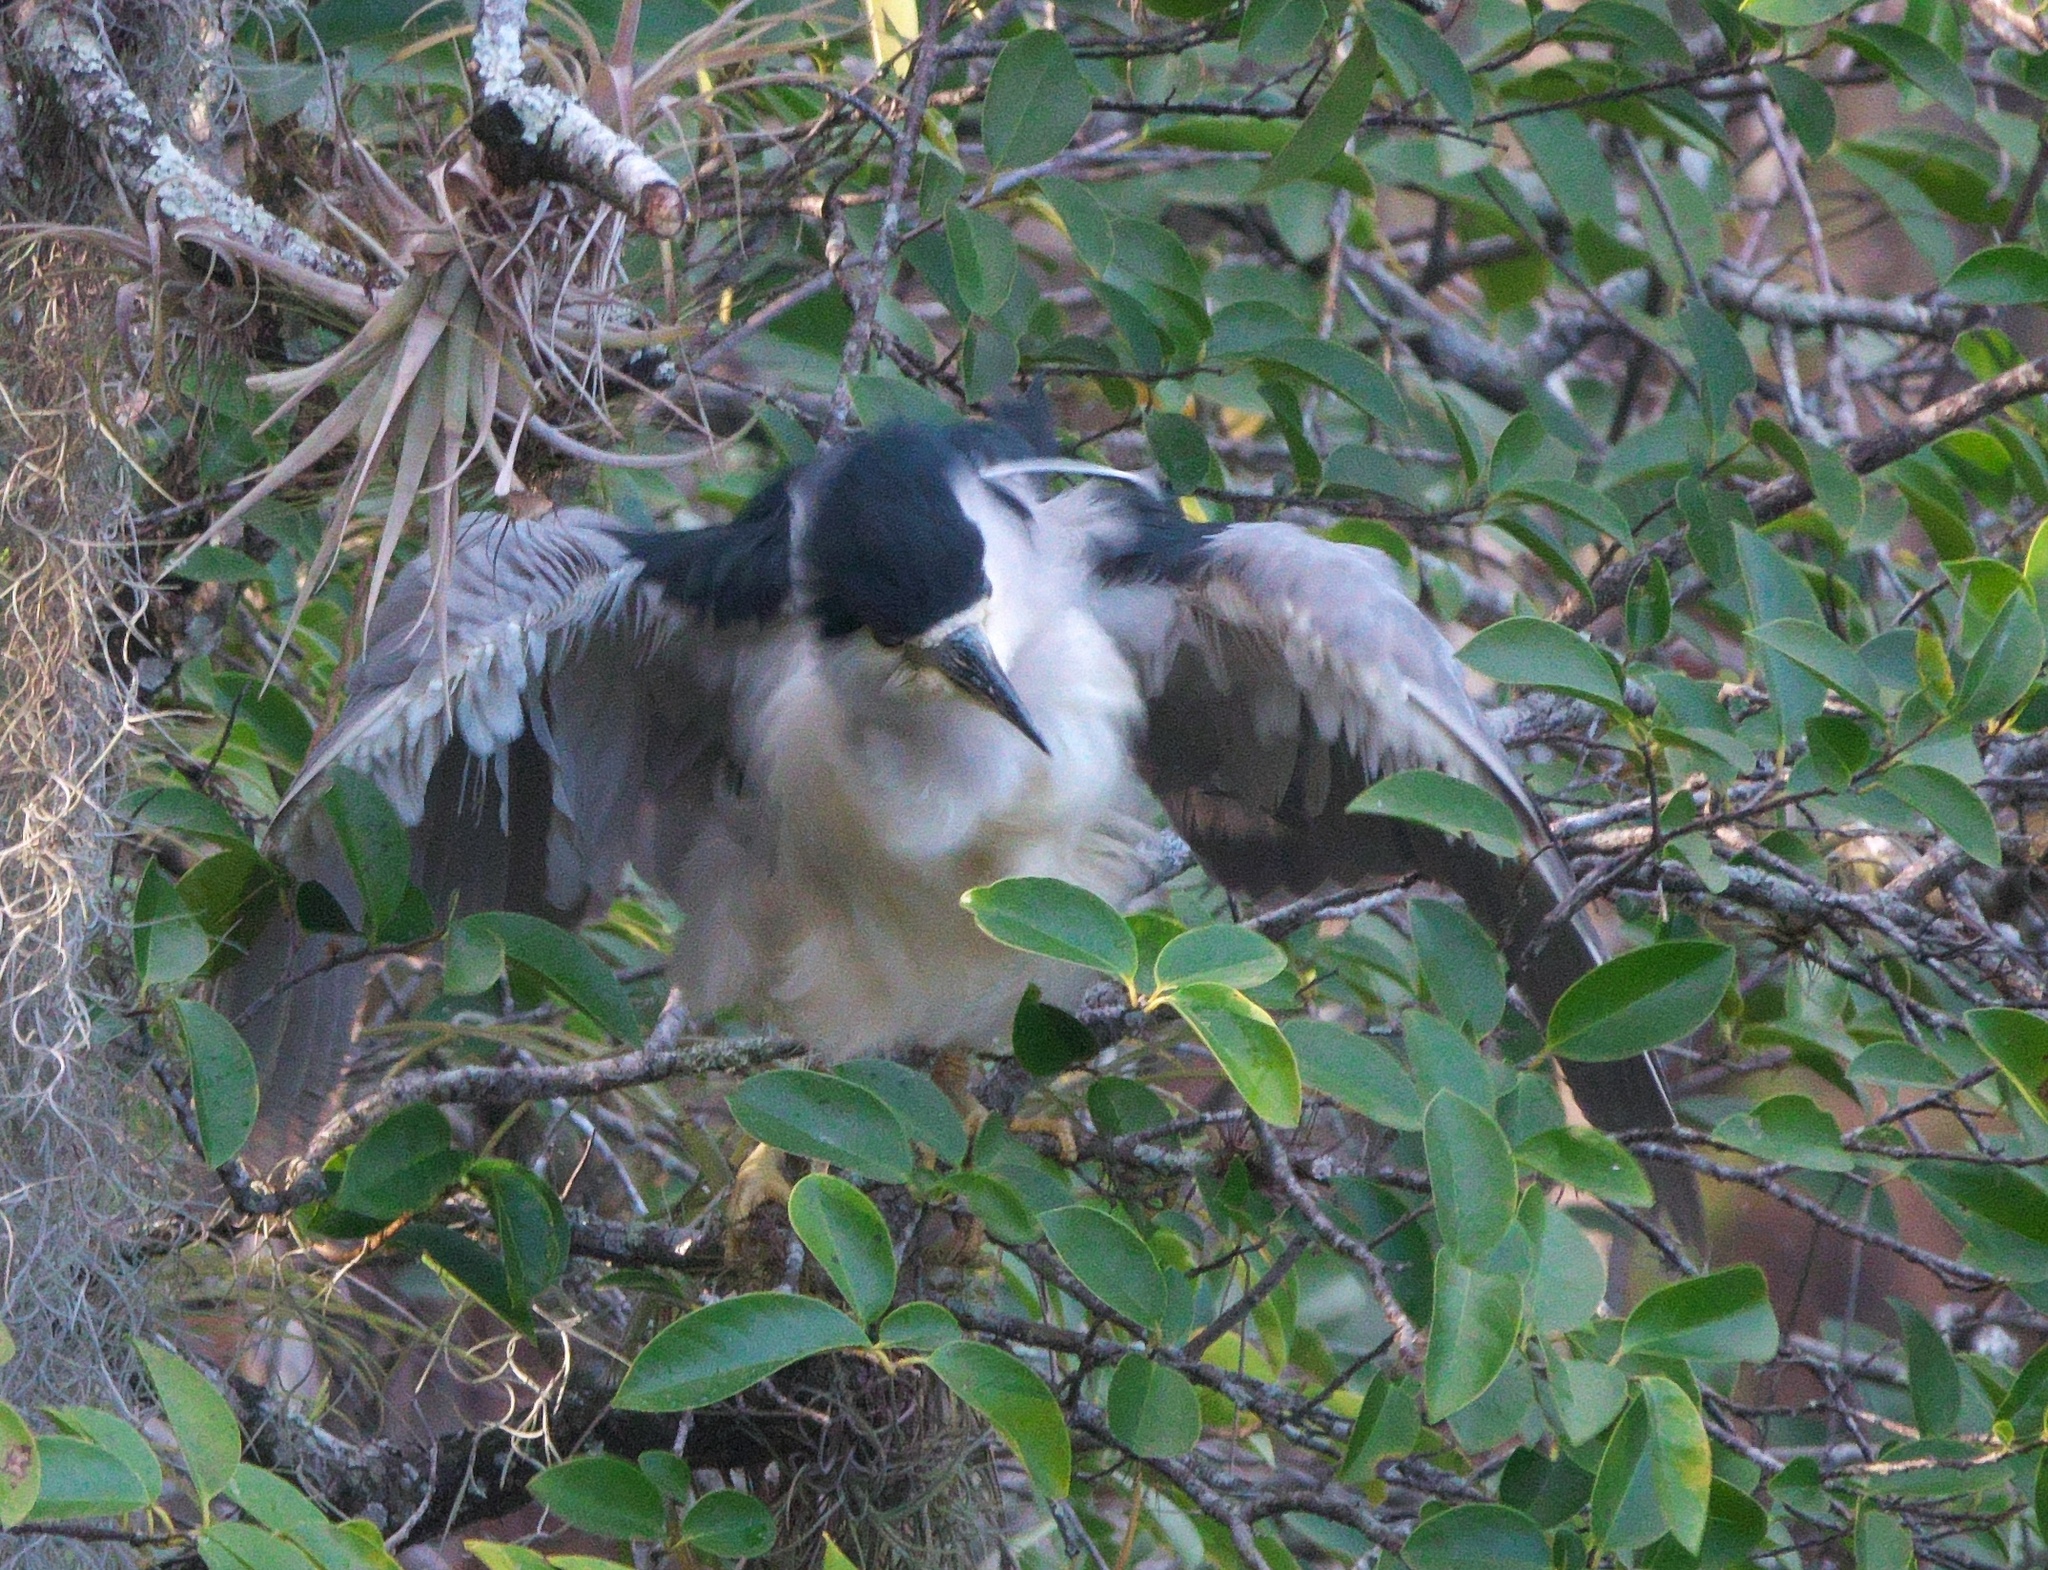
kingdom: Animalia
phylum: Chordata
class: Aves
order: Pelecaniformes
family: Ardeidae
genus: Nycticorax
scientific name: Nycticorax nycticorax
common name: Black-crowned night heron
